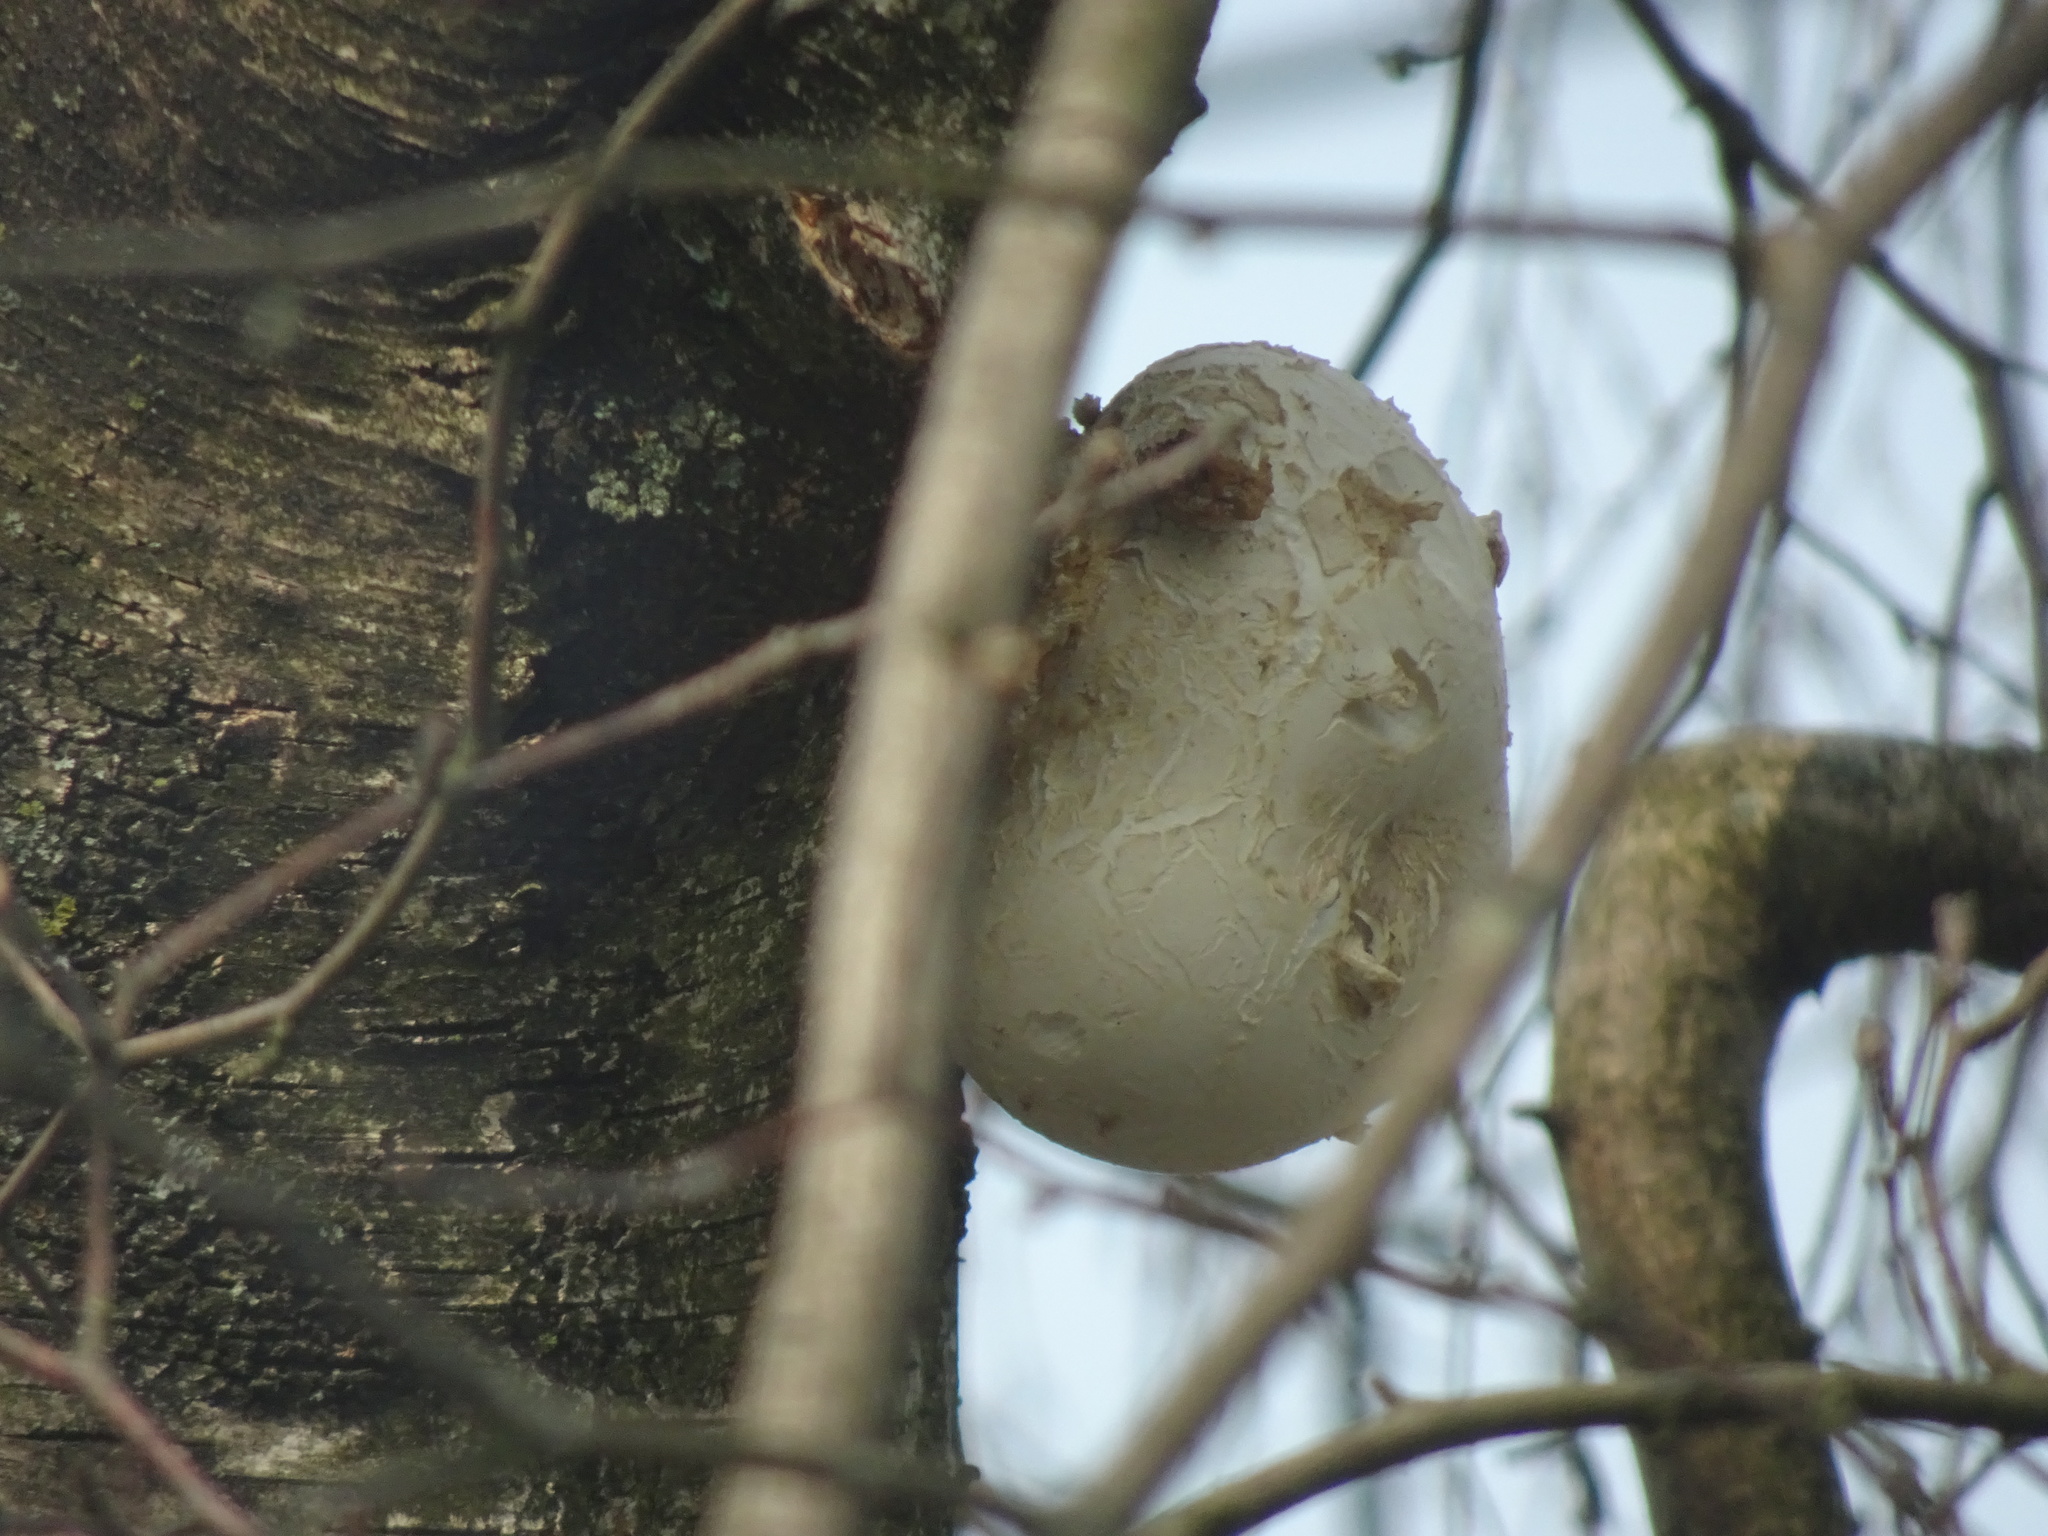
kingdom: Fungi
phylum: Basidiomycota
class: Agaricomycetes
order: Polyporales
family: Fomitopsidaceae
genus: Fomitopsis
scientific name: Fomitopsis betulina
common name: Birch polypore
